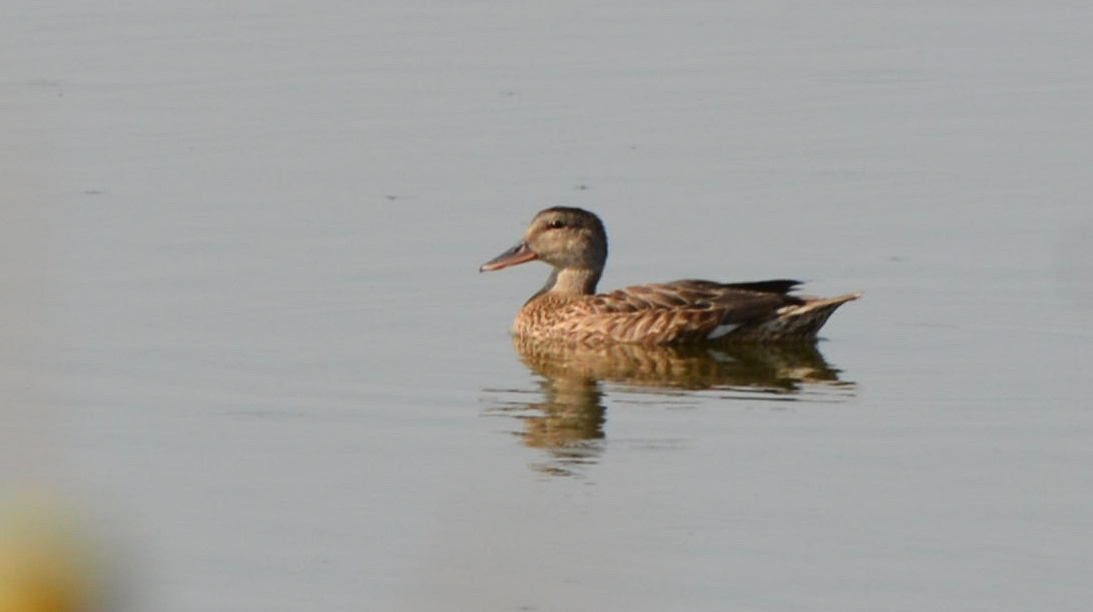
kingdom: Animalia
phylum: Chordata
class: Aves
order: Anseriformes
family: Anatidae
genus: Mareca
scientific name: Mareca strepera
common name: Gadwall
